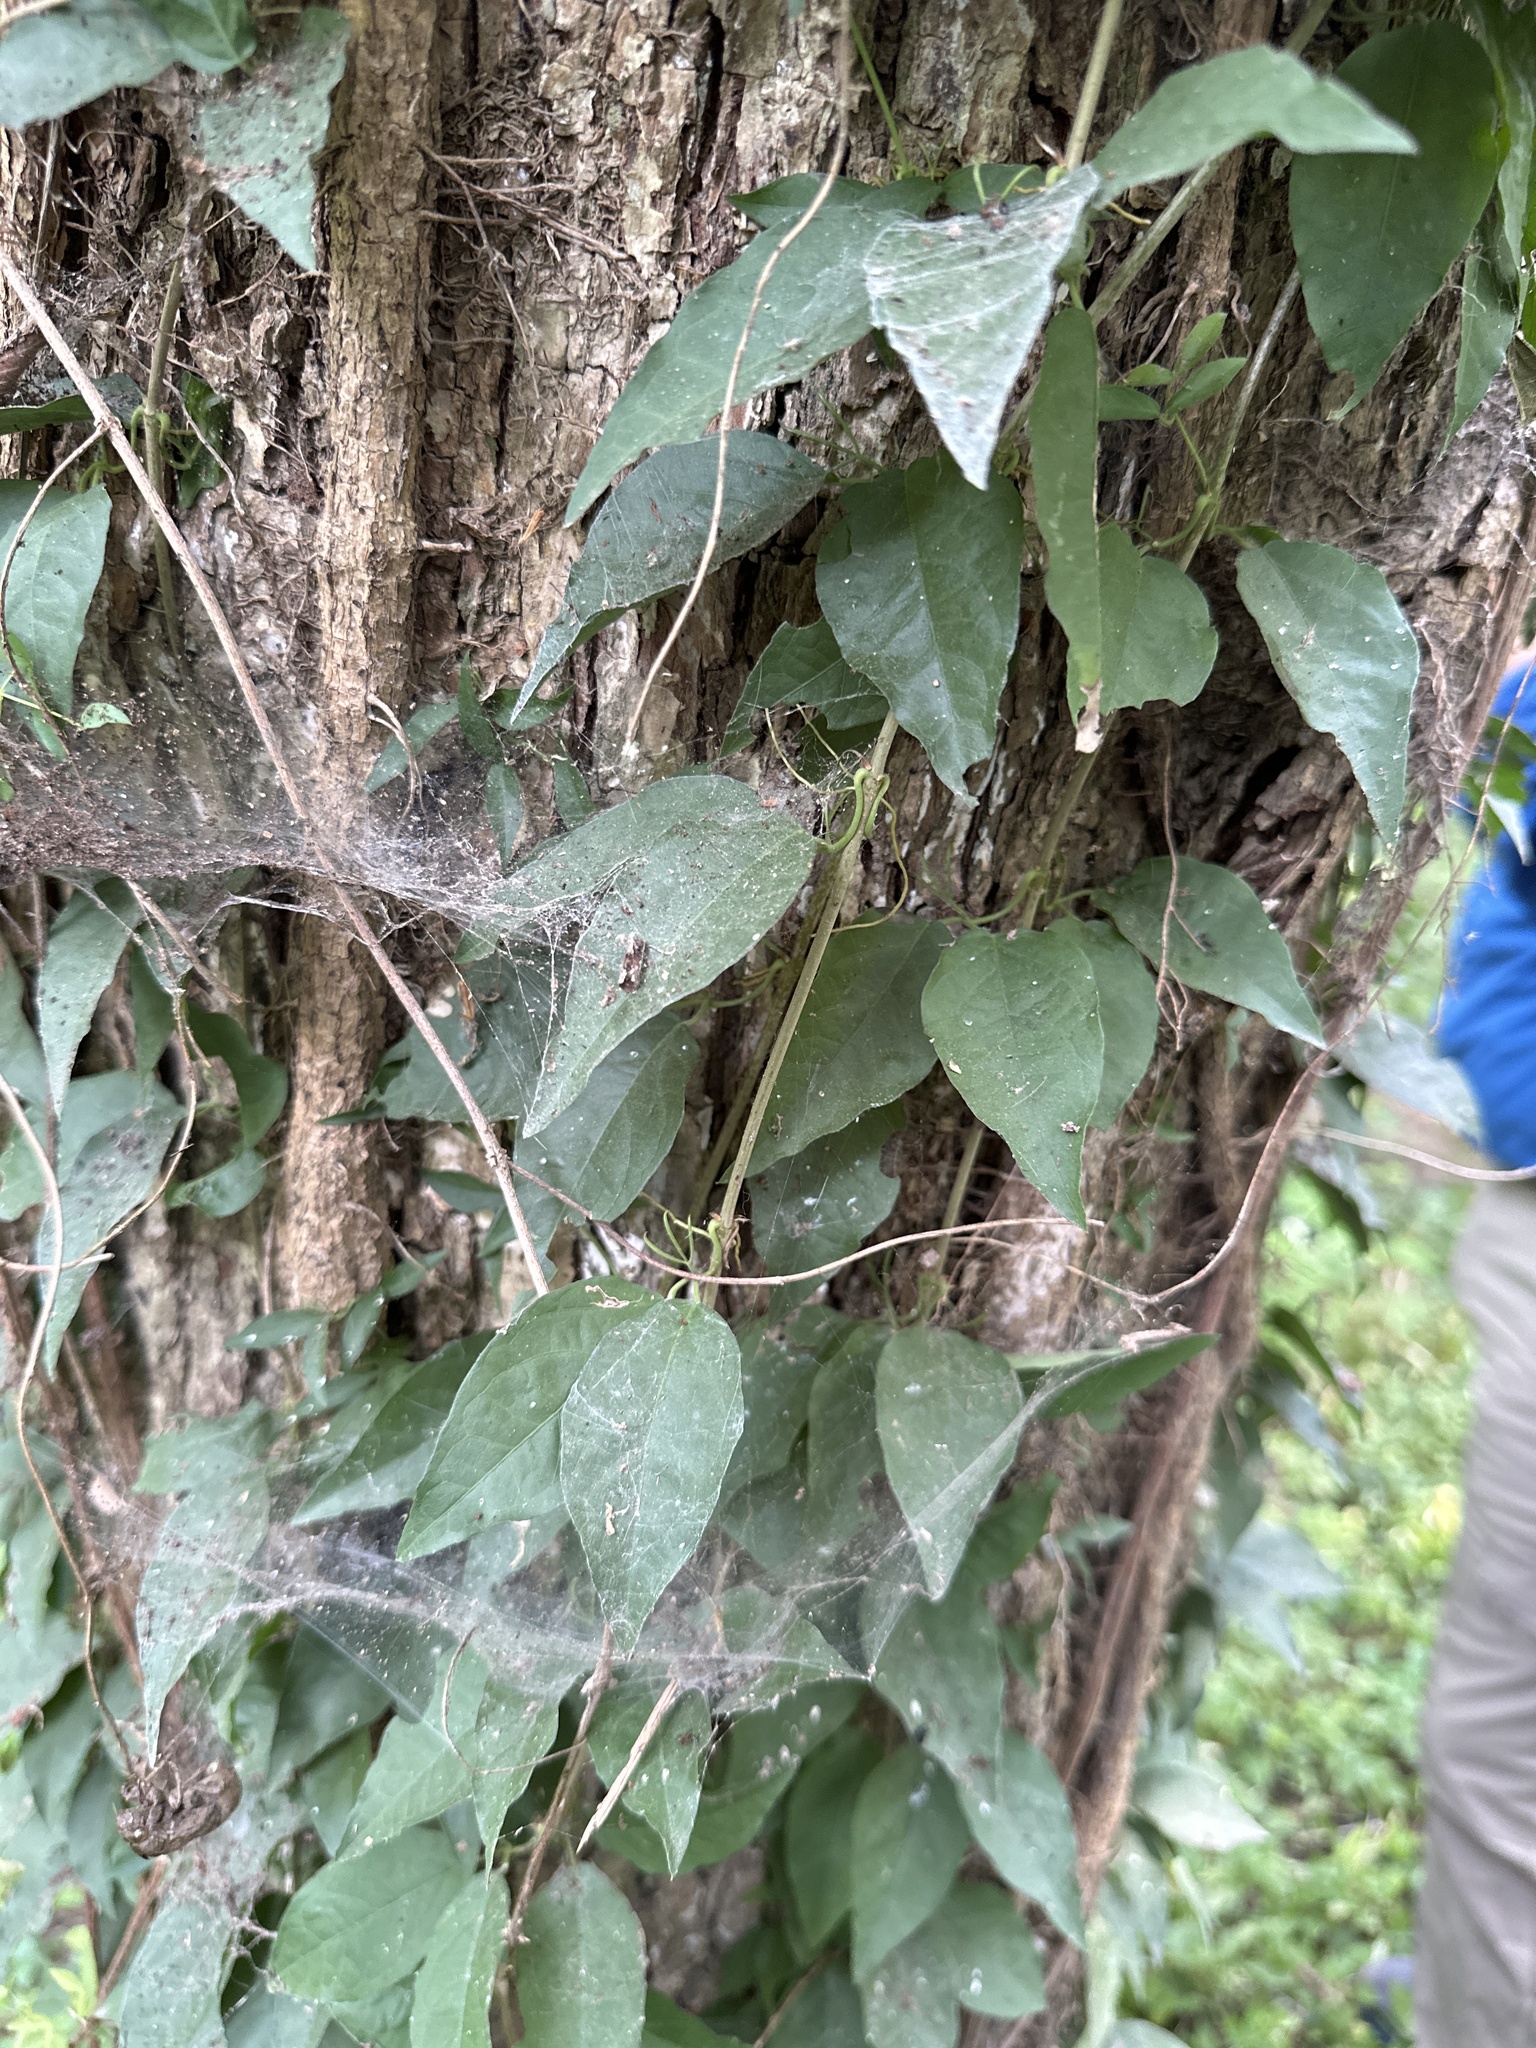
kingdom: Plantae
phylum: Tracheophyta
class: Magnoliopsida
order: Lamiales
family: Bignoniaceae
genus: Dolichandra
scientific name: Dolichandra unguis-cati
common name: Catclaw vine
